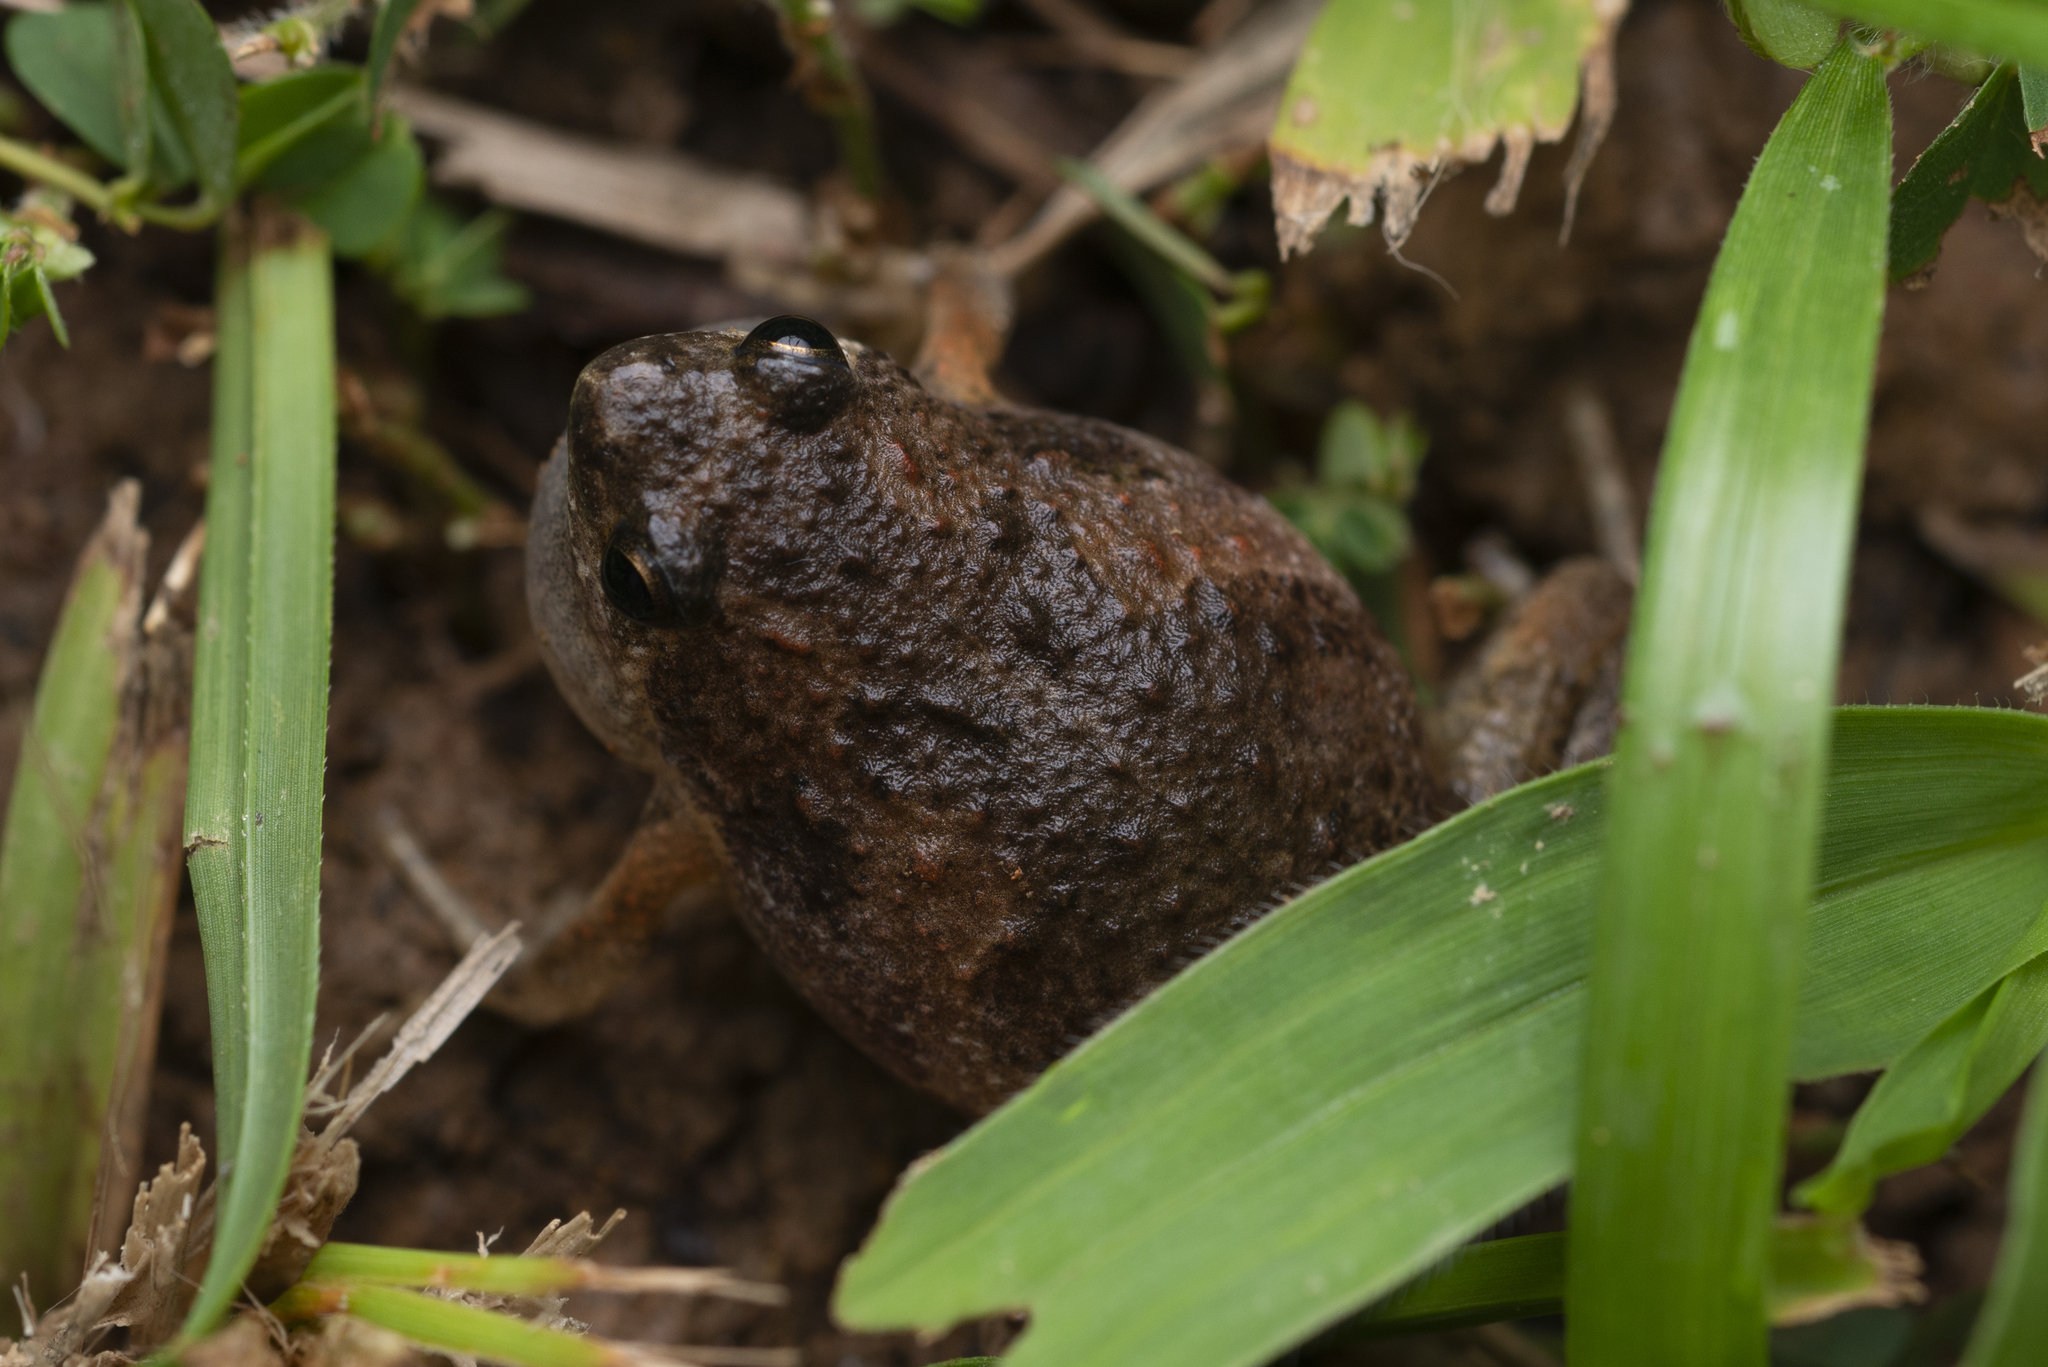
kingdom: Animalia
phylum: Chordata
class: Amphibia
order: Anura
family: Microhylidae
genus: Microhyla
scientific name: Microhyla butleri
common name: Butler’s rice frog,painted chorus frog,tubercled pygmy frog
